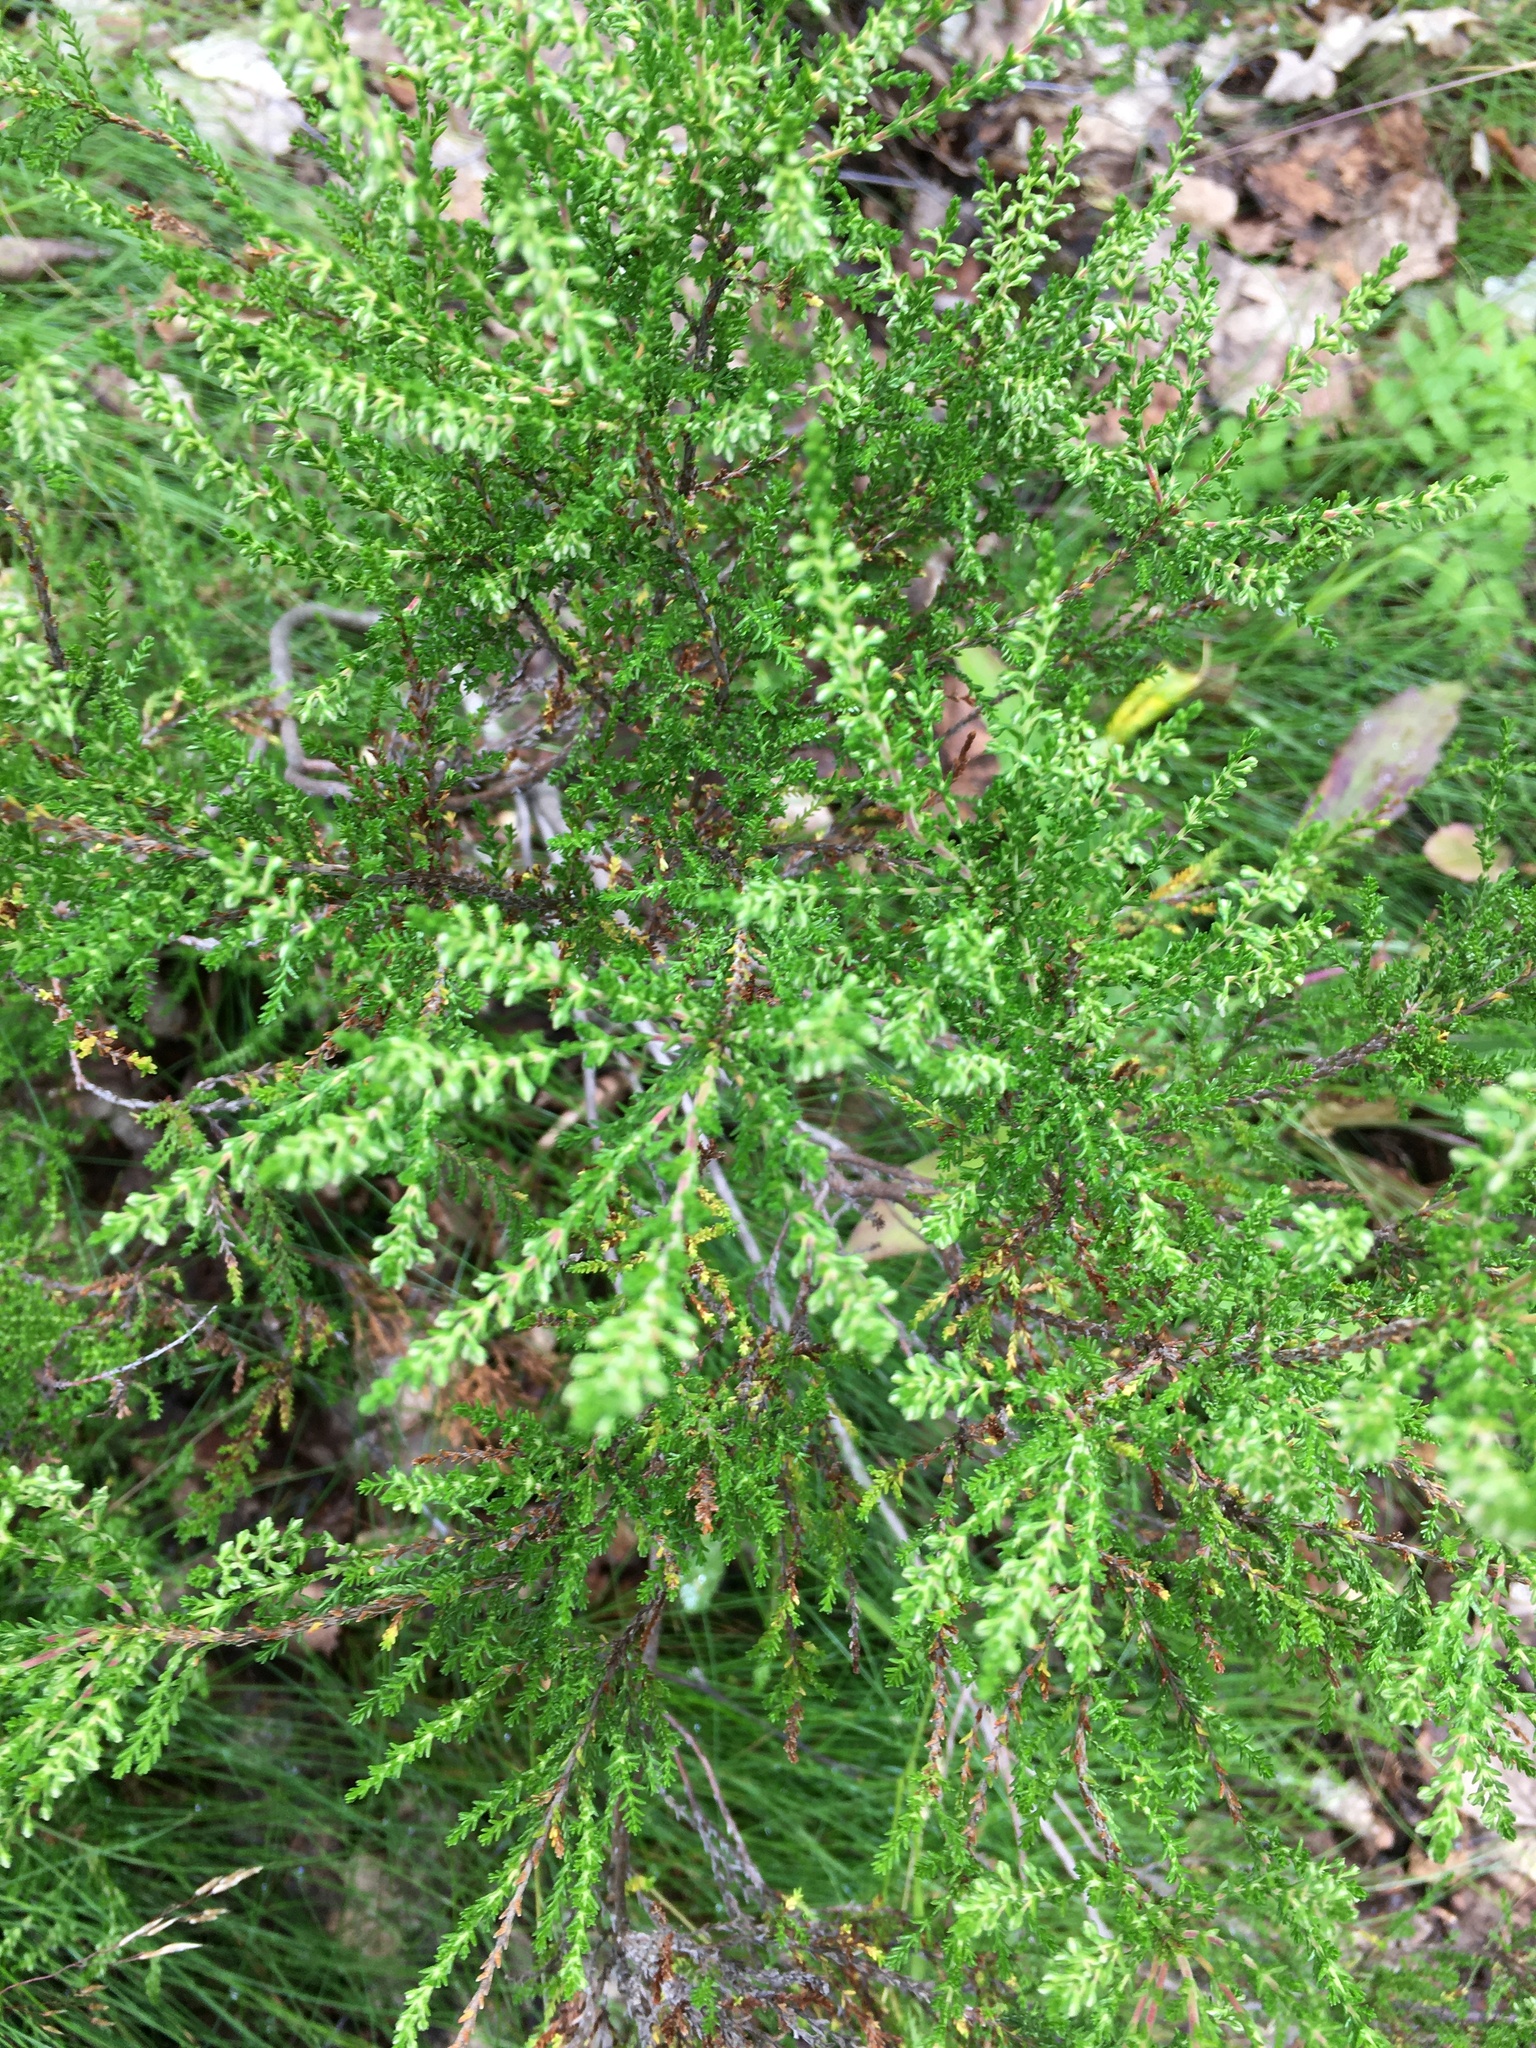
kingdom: Plantae
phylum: Tracheophyta
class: Magnoliopsida
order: Ericales
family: Ericaceae
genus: Calluna
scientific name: Calluna vulgaris
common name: Heather
